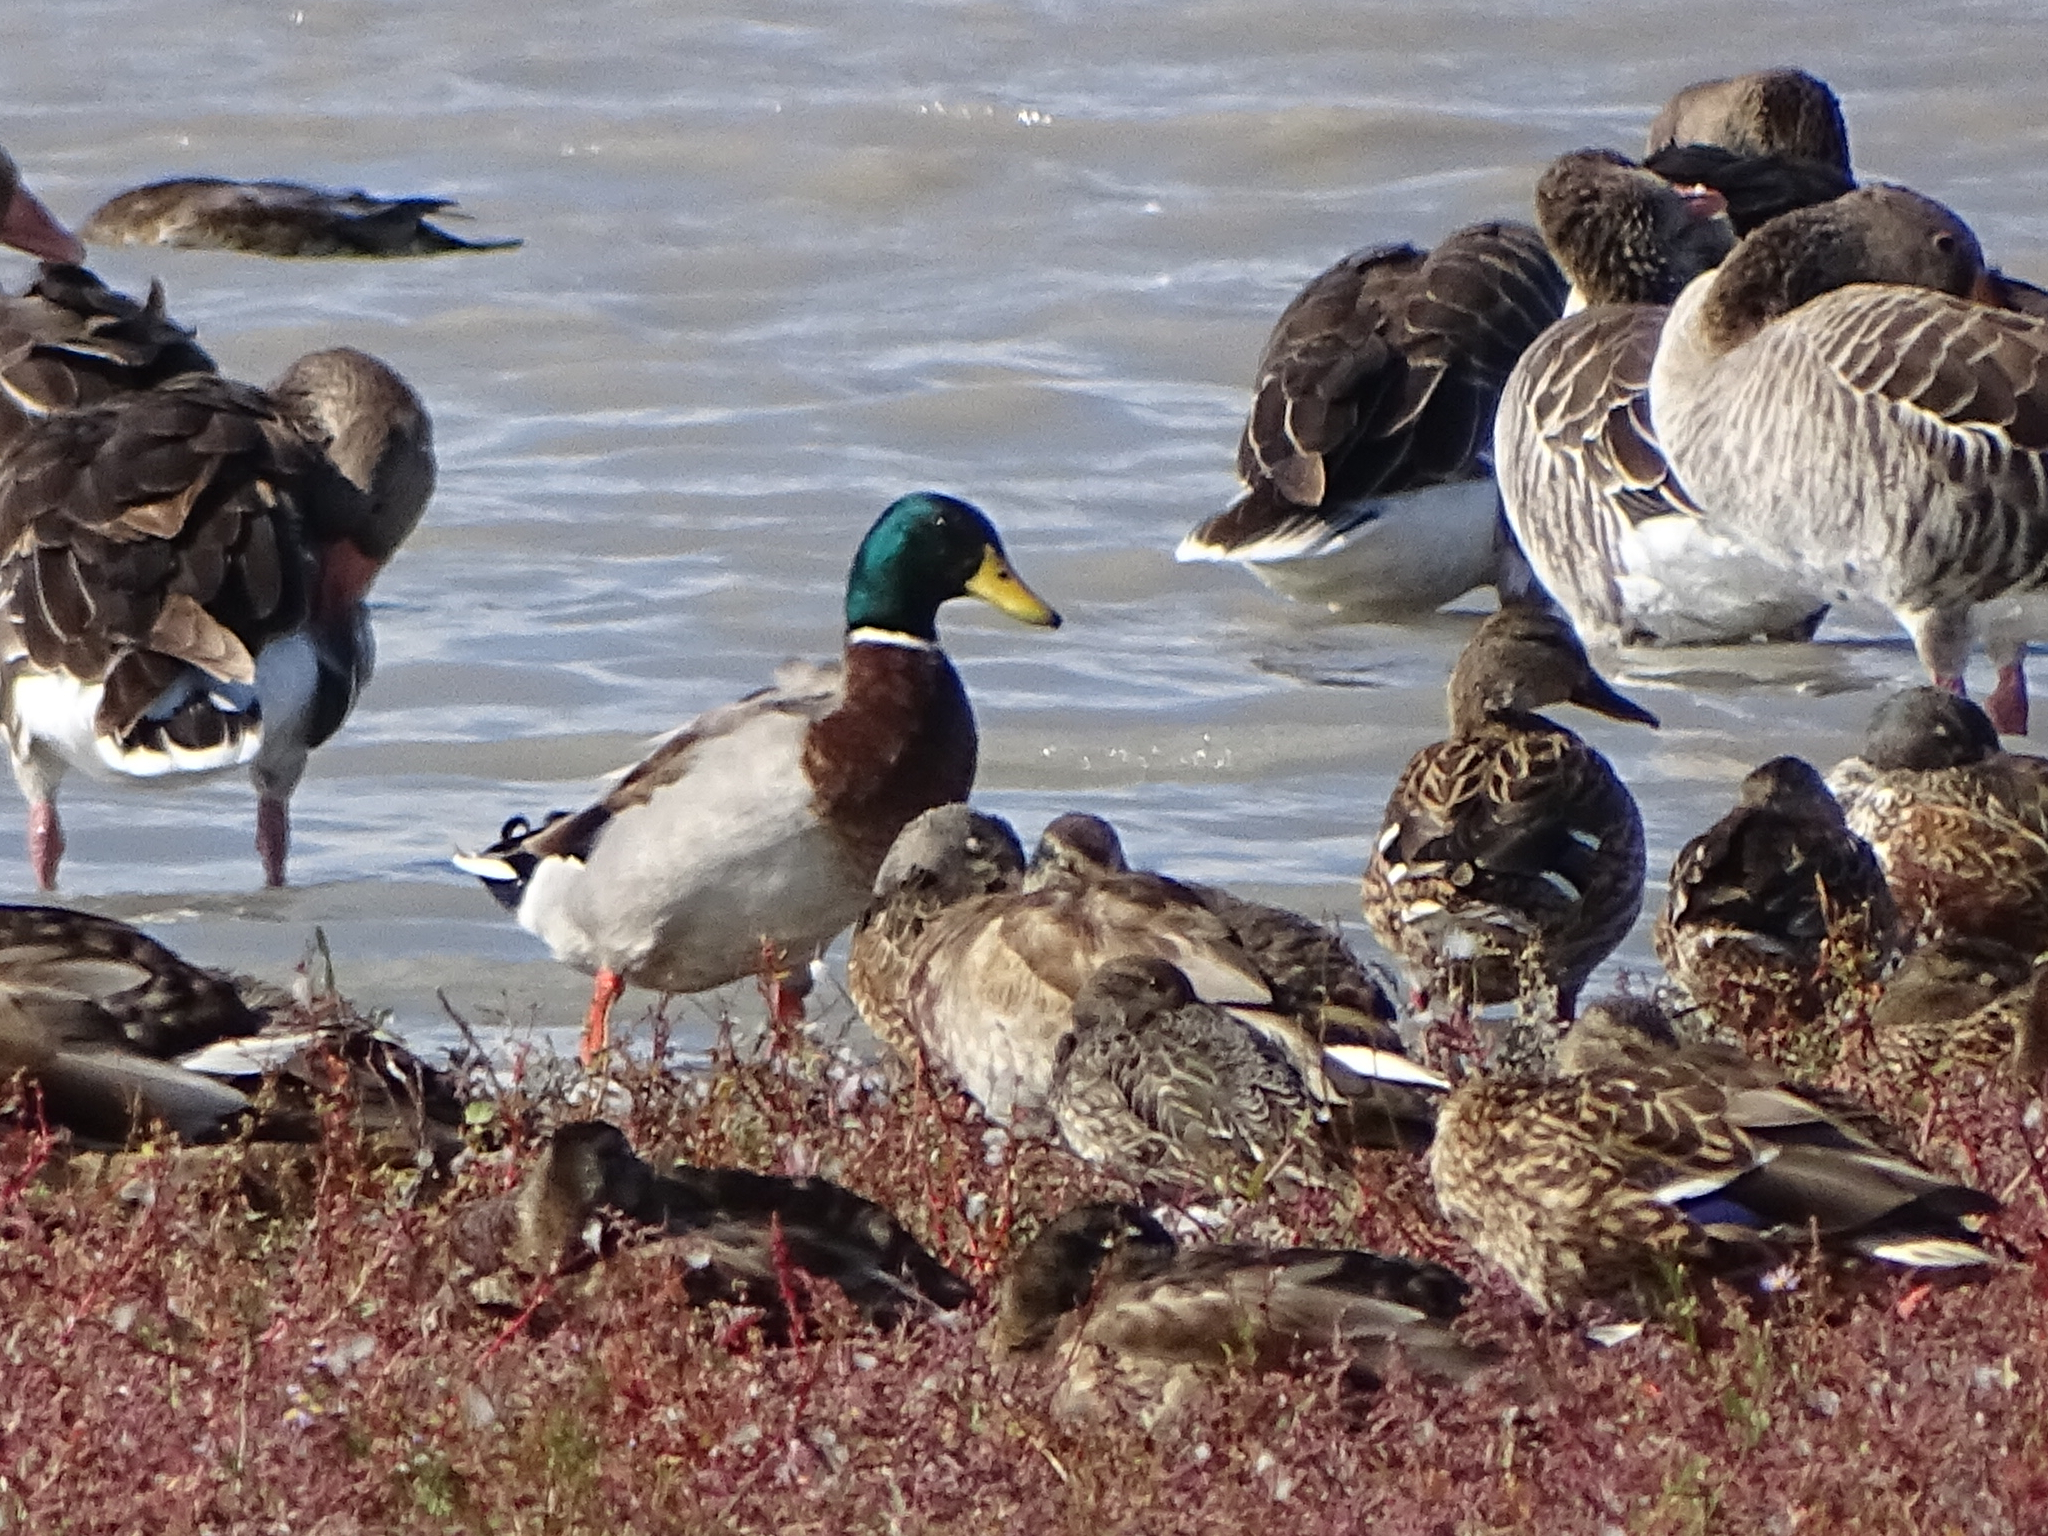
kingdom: Animalia
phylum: Chordata
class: Aves
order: Anseriformes
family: Anatidae
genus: Anas
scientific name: Anas platyrhynchos
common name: Mallard
